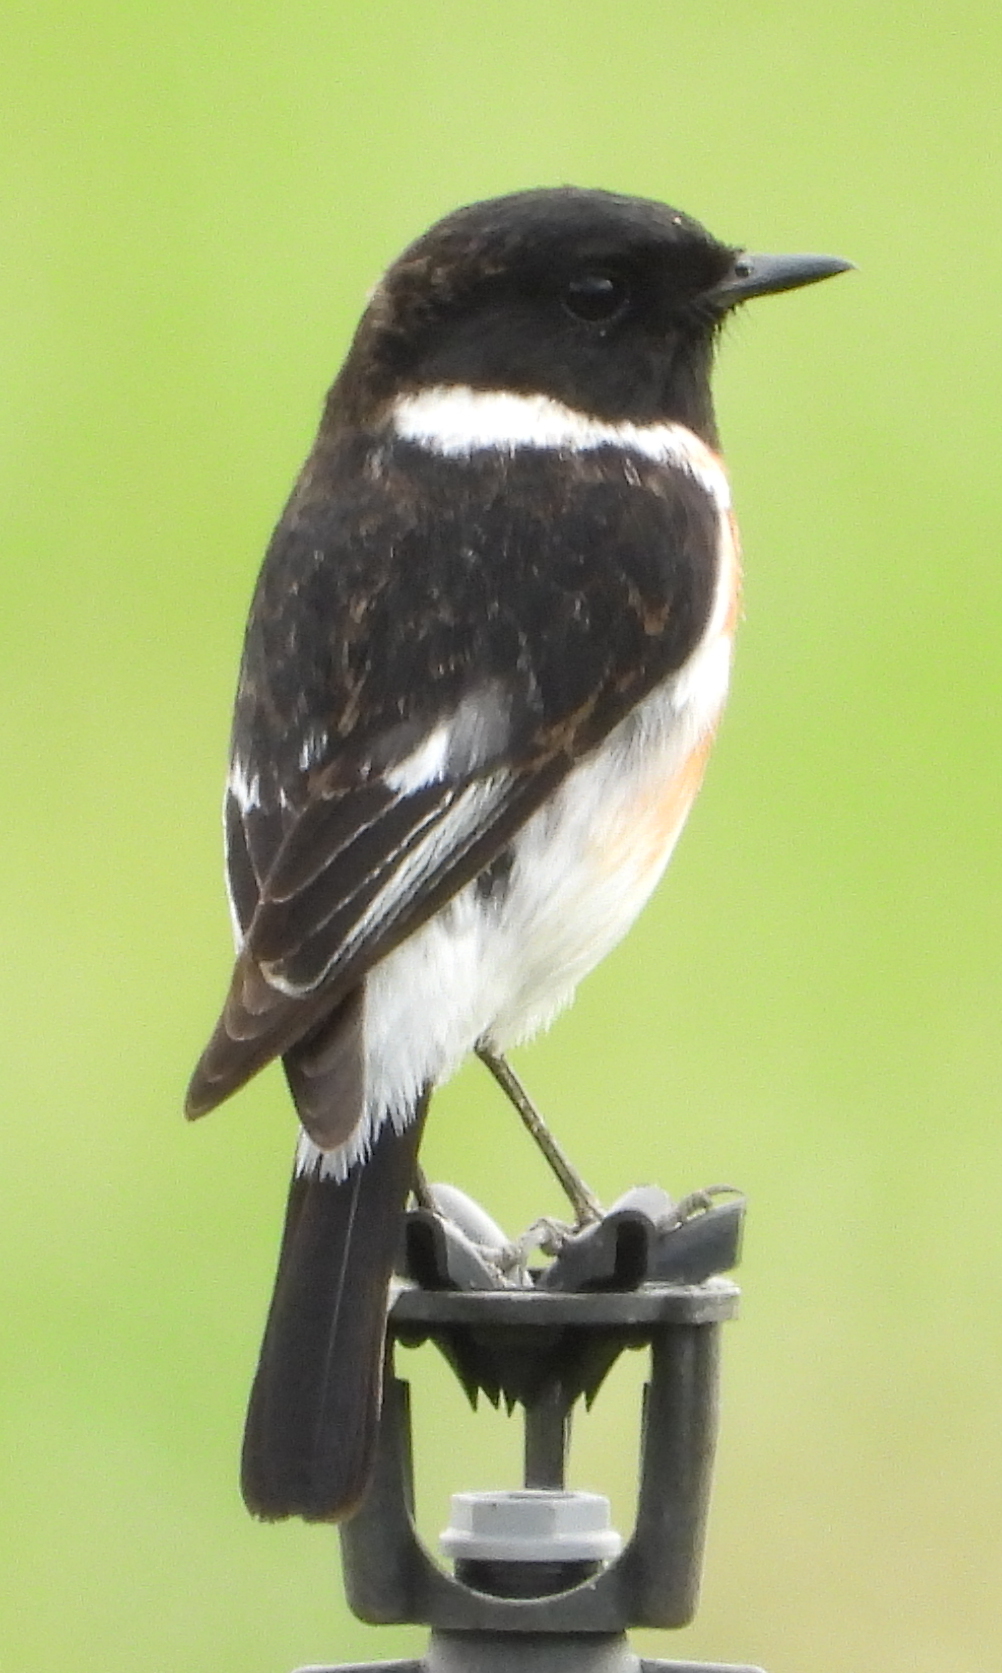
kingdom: Animalia
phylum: Chordata
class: Aves
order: Passeriformes
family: Muscicapidae
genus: Saxicola
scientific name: Saxicola torquatus
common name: African stonechat
